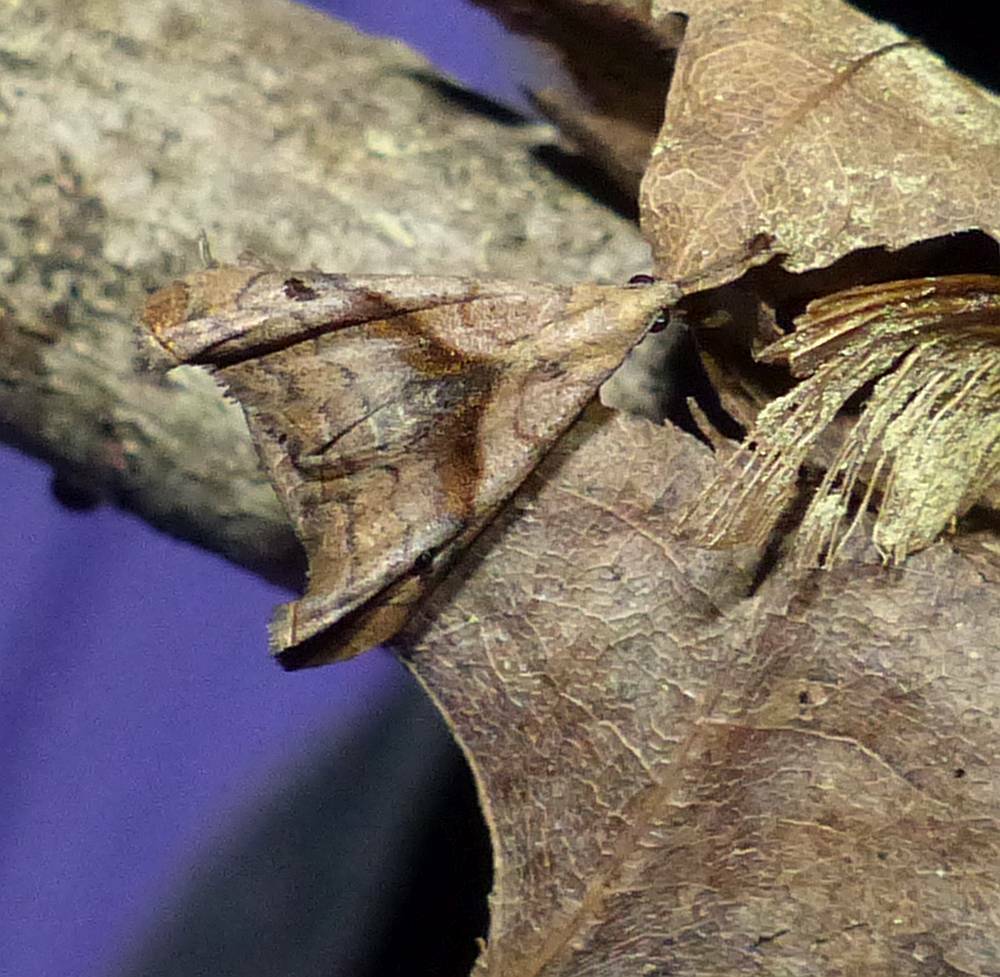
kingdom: Animalia
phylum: Arthropoda
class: Insecta
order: Lepidoptera
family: Erebidae
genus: Palthis
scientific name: Palthis angulalis
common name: Dark-spotted palthis moth
